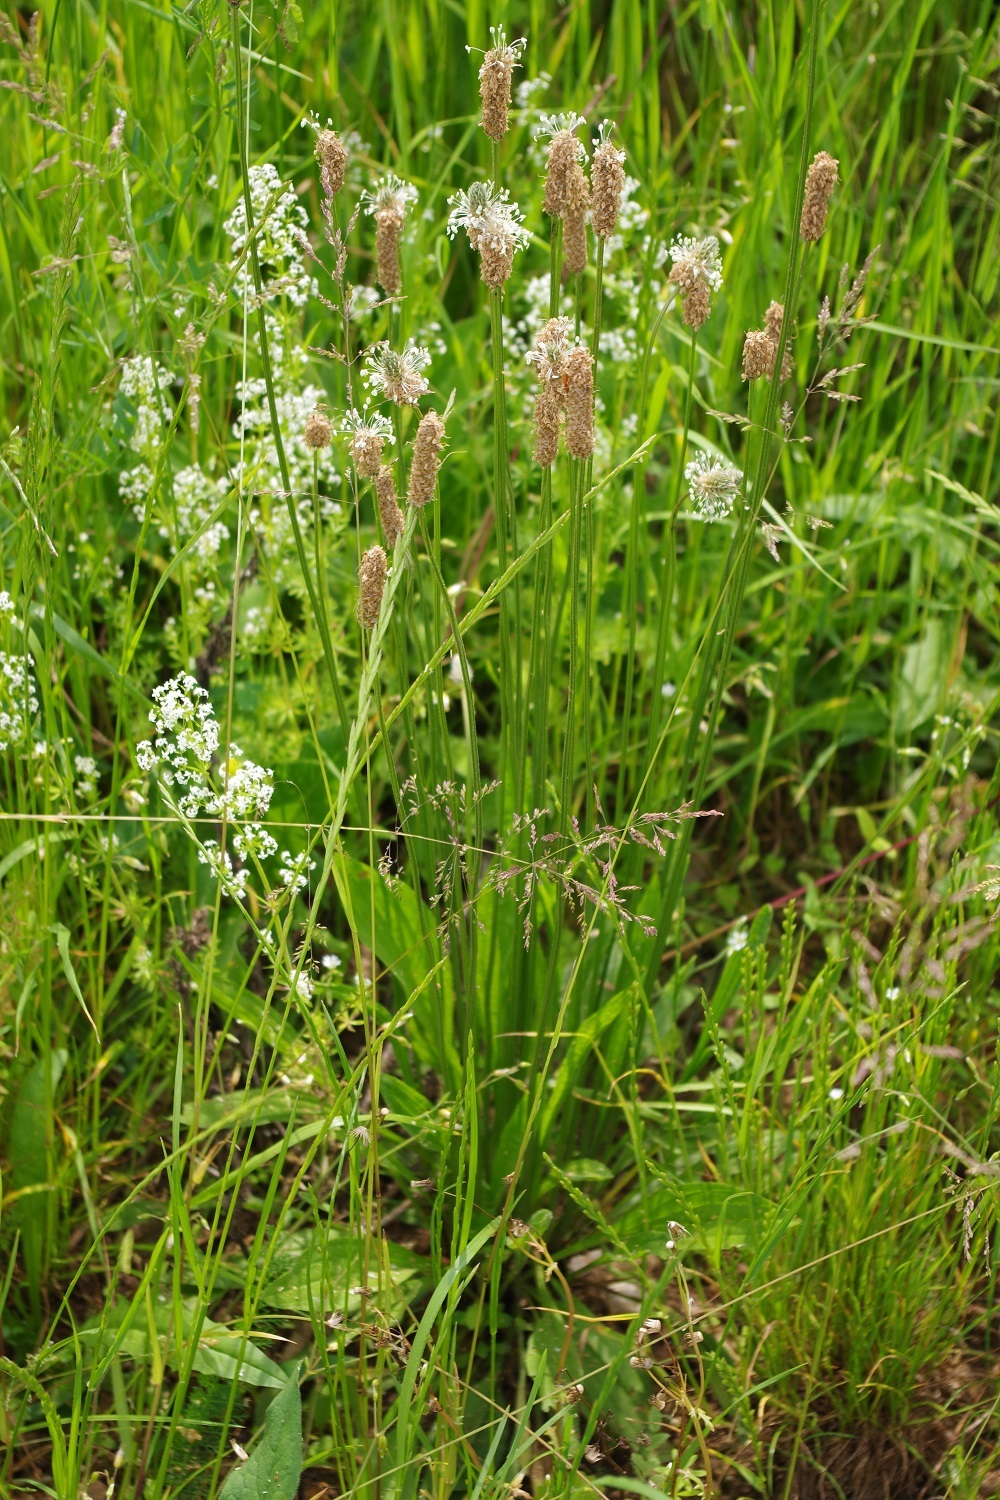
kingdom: Plantae
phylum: Tracheophyta
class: Magnoliopsida
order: Lamiales
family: Plantaginaceae
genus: Plantago
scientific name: Plantago lanceolata
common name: Ribwort plantain
